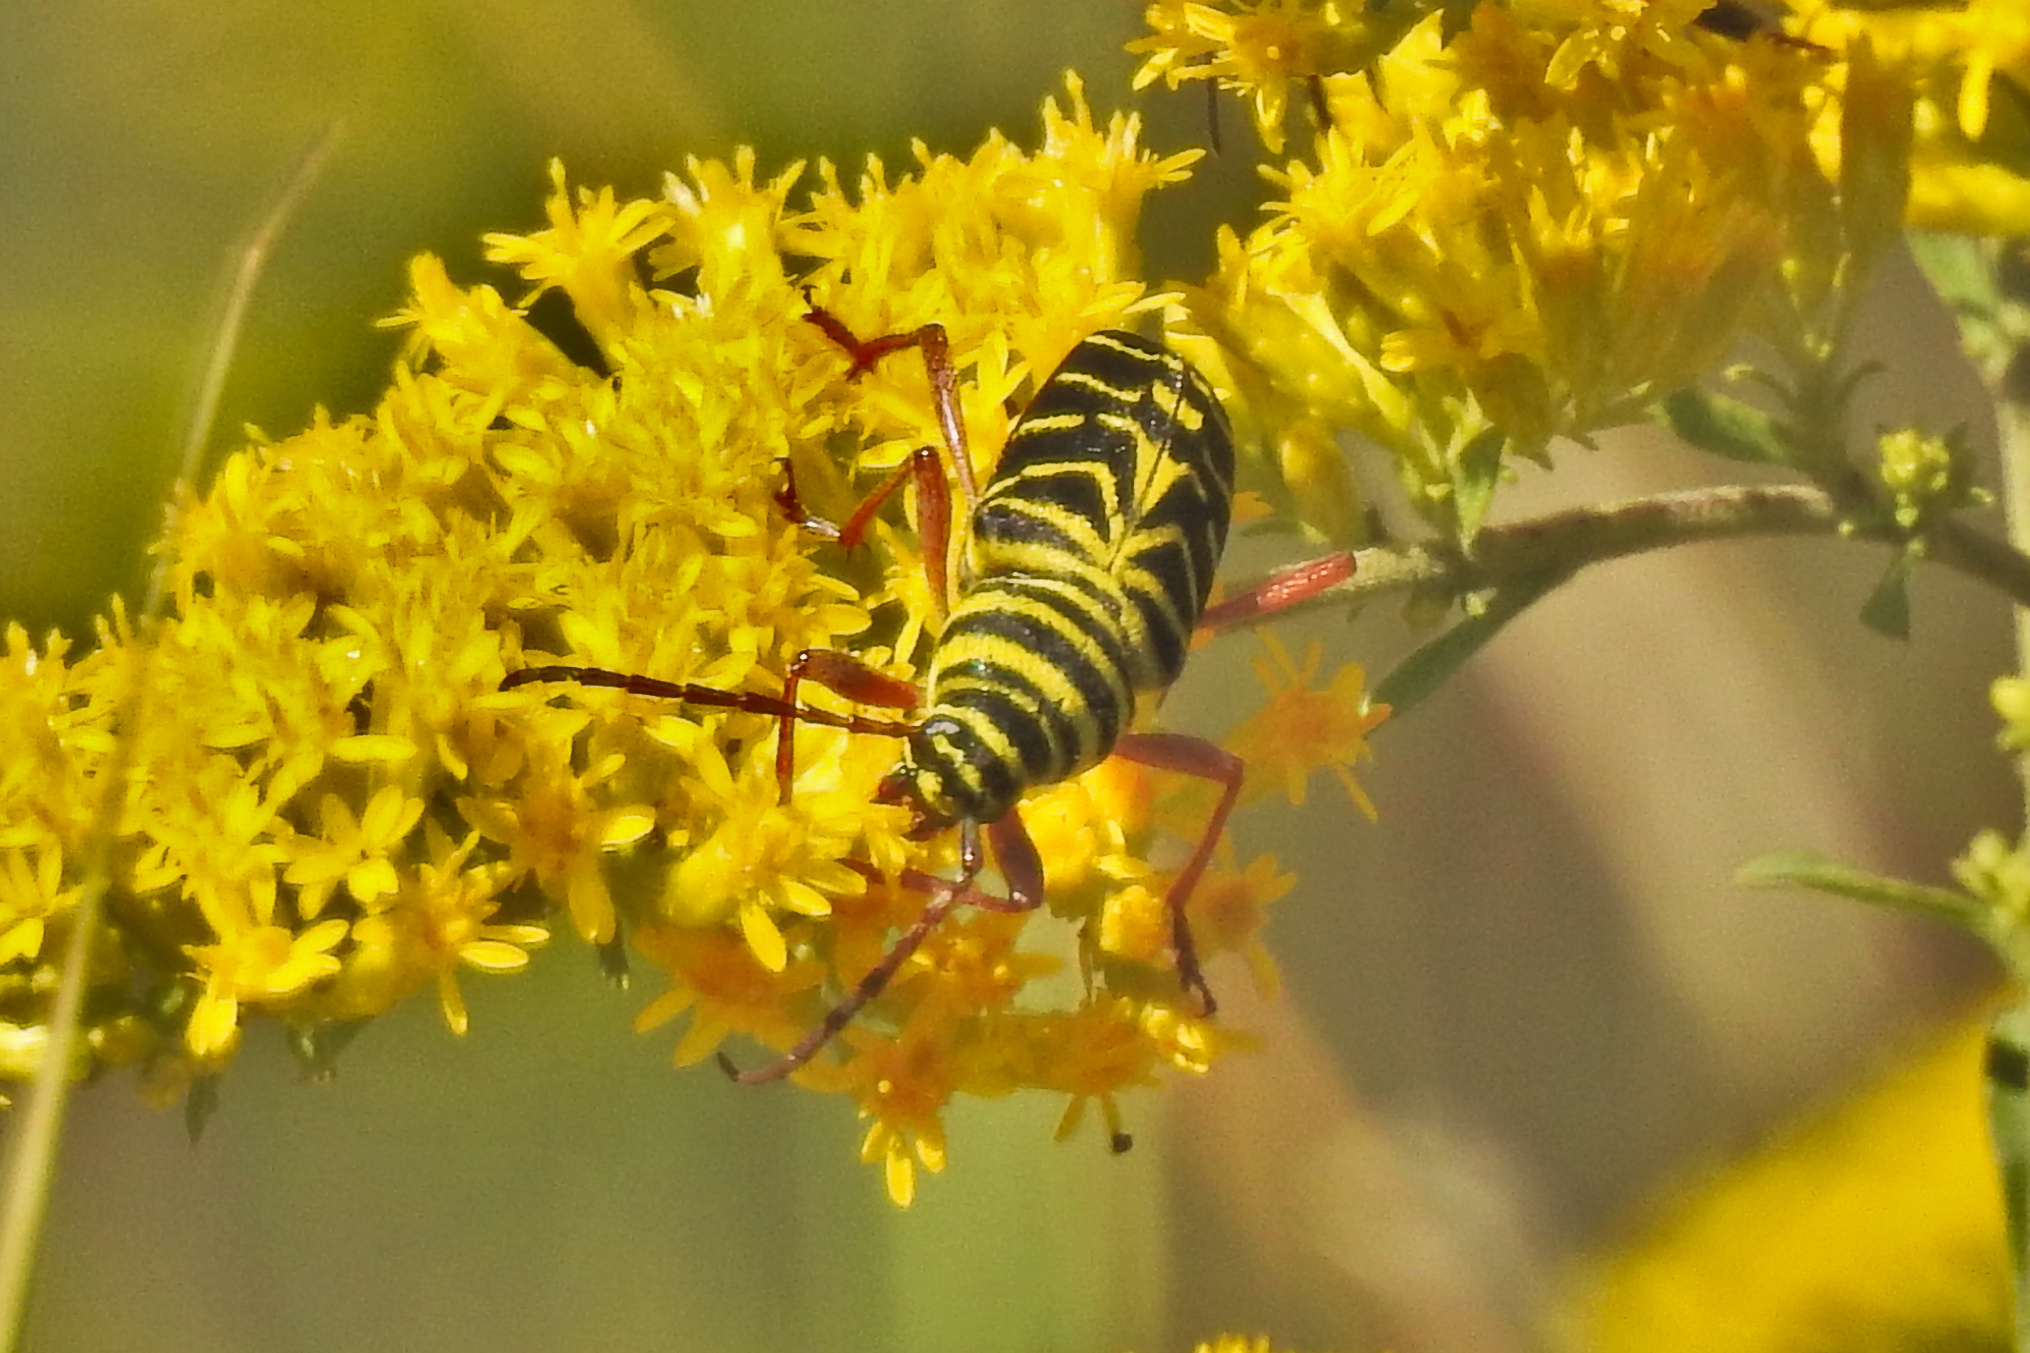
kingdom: Animalia
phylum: Arthropoda
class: Insecta
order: Coleoptera
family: Cerambycidae
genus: Megacyllene
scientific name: Megacyllene robiniae
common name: Locust borer
